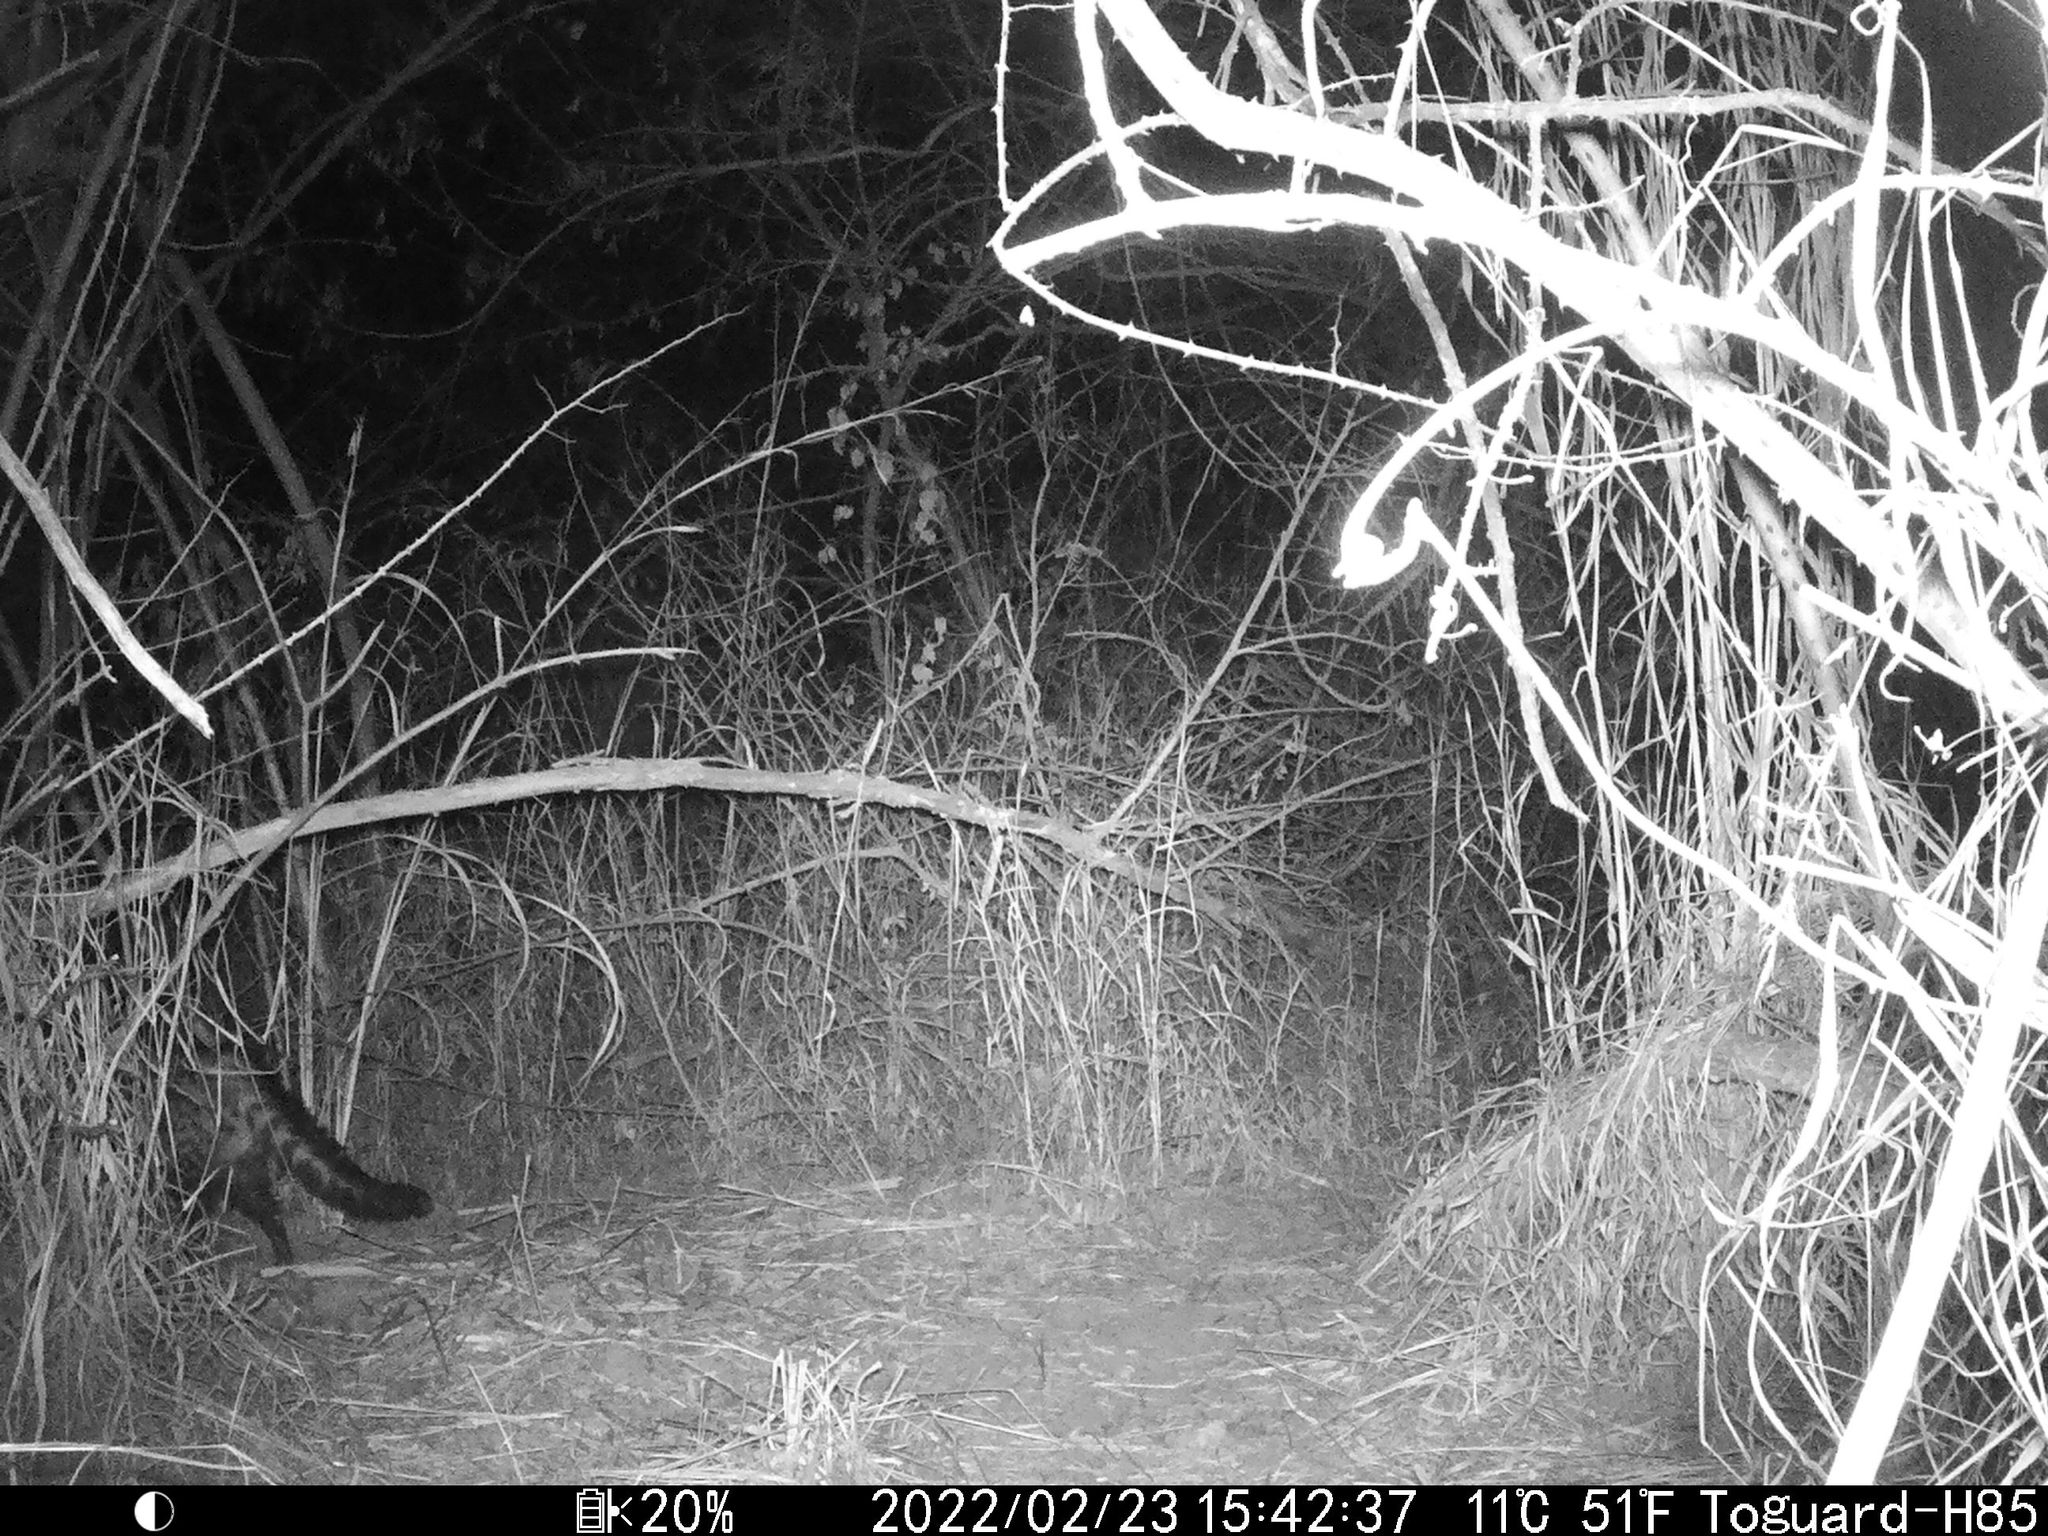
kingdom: Animalia
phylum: Chordata
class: Mammalia
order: Carnivora
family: Viverridae
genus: Civettictis
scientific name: Civettictis civetta
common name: African civet
